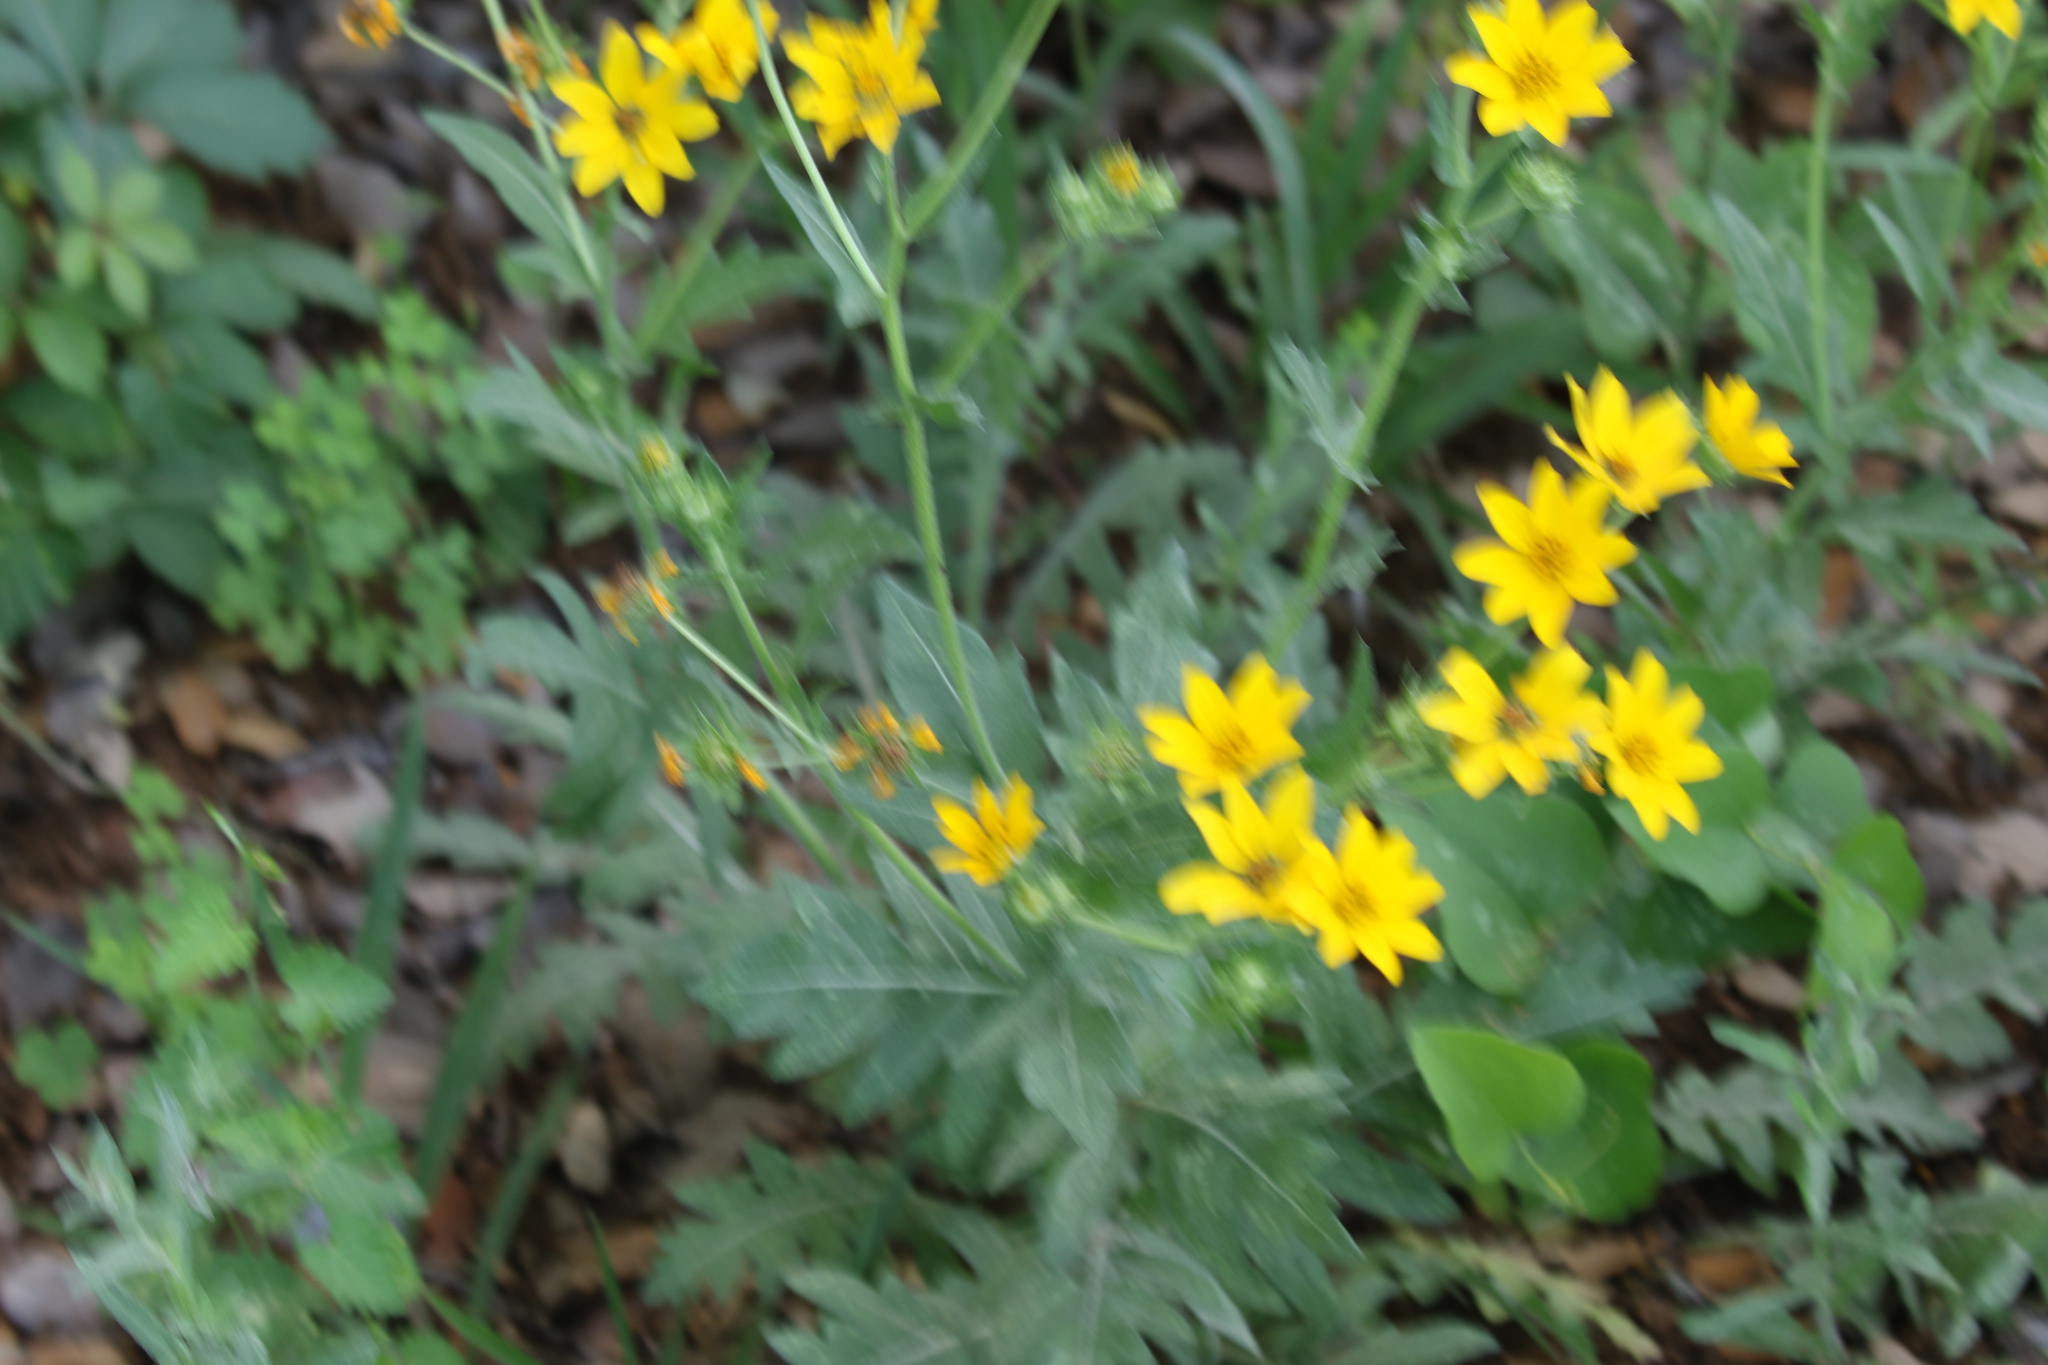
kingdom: Plantae
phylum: Tracheophyta
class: Magnoliopsida
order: Asterales
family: Asteraceae
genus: Engelmannia
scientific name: Engelmannia peristenia
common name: Engelmann's daisy
